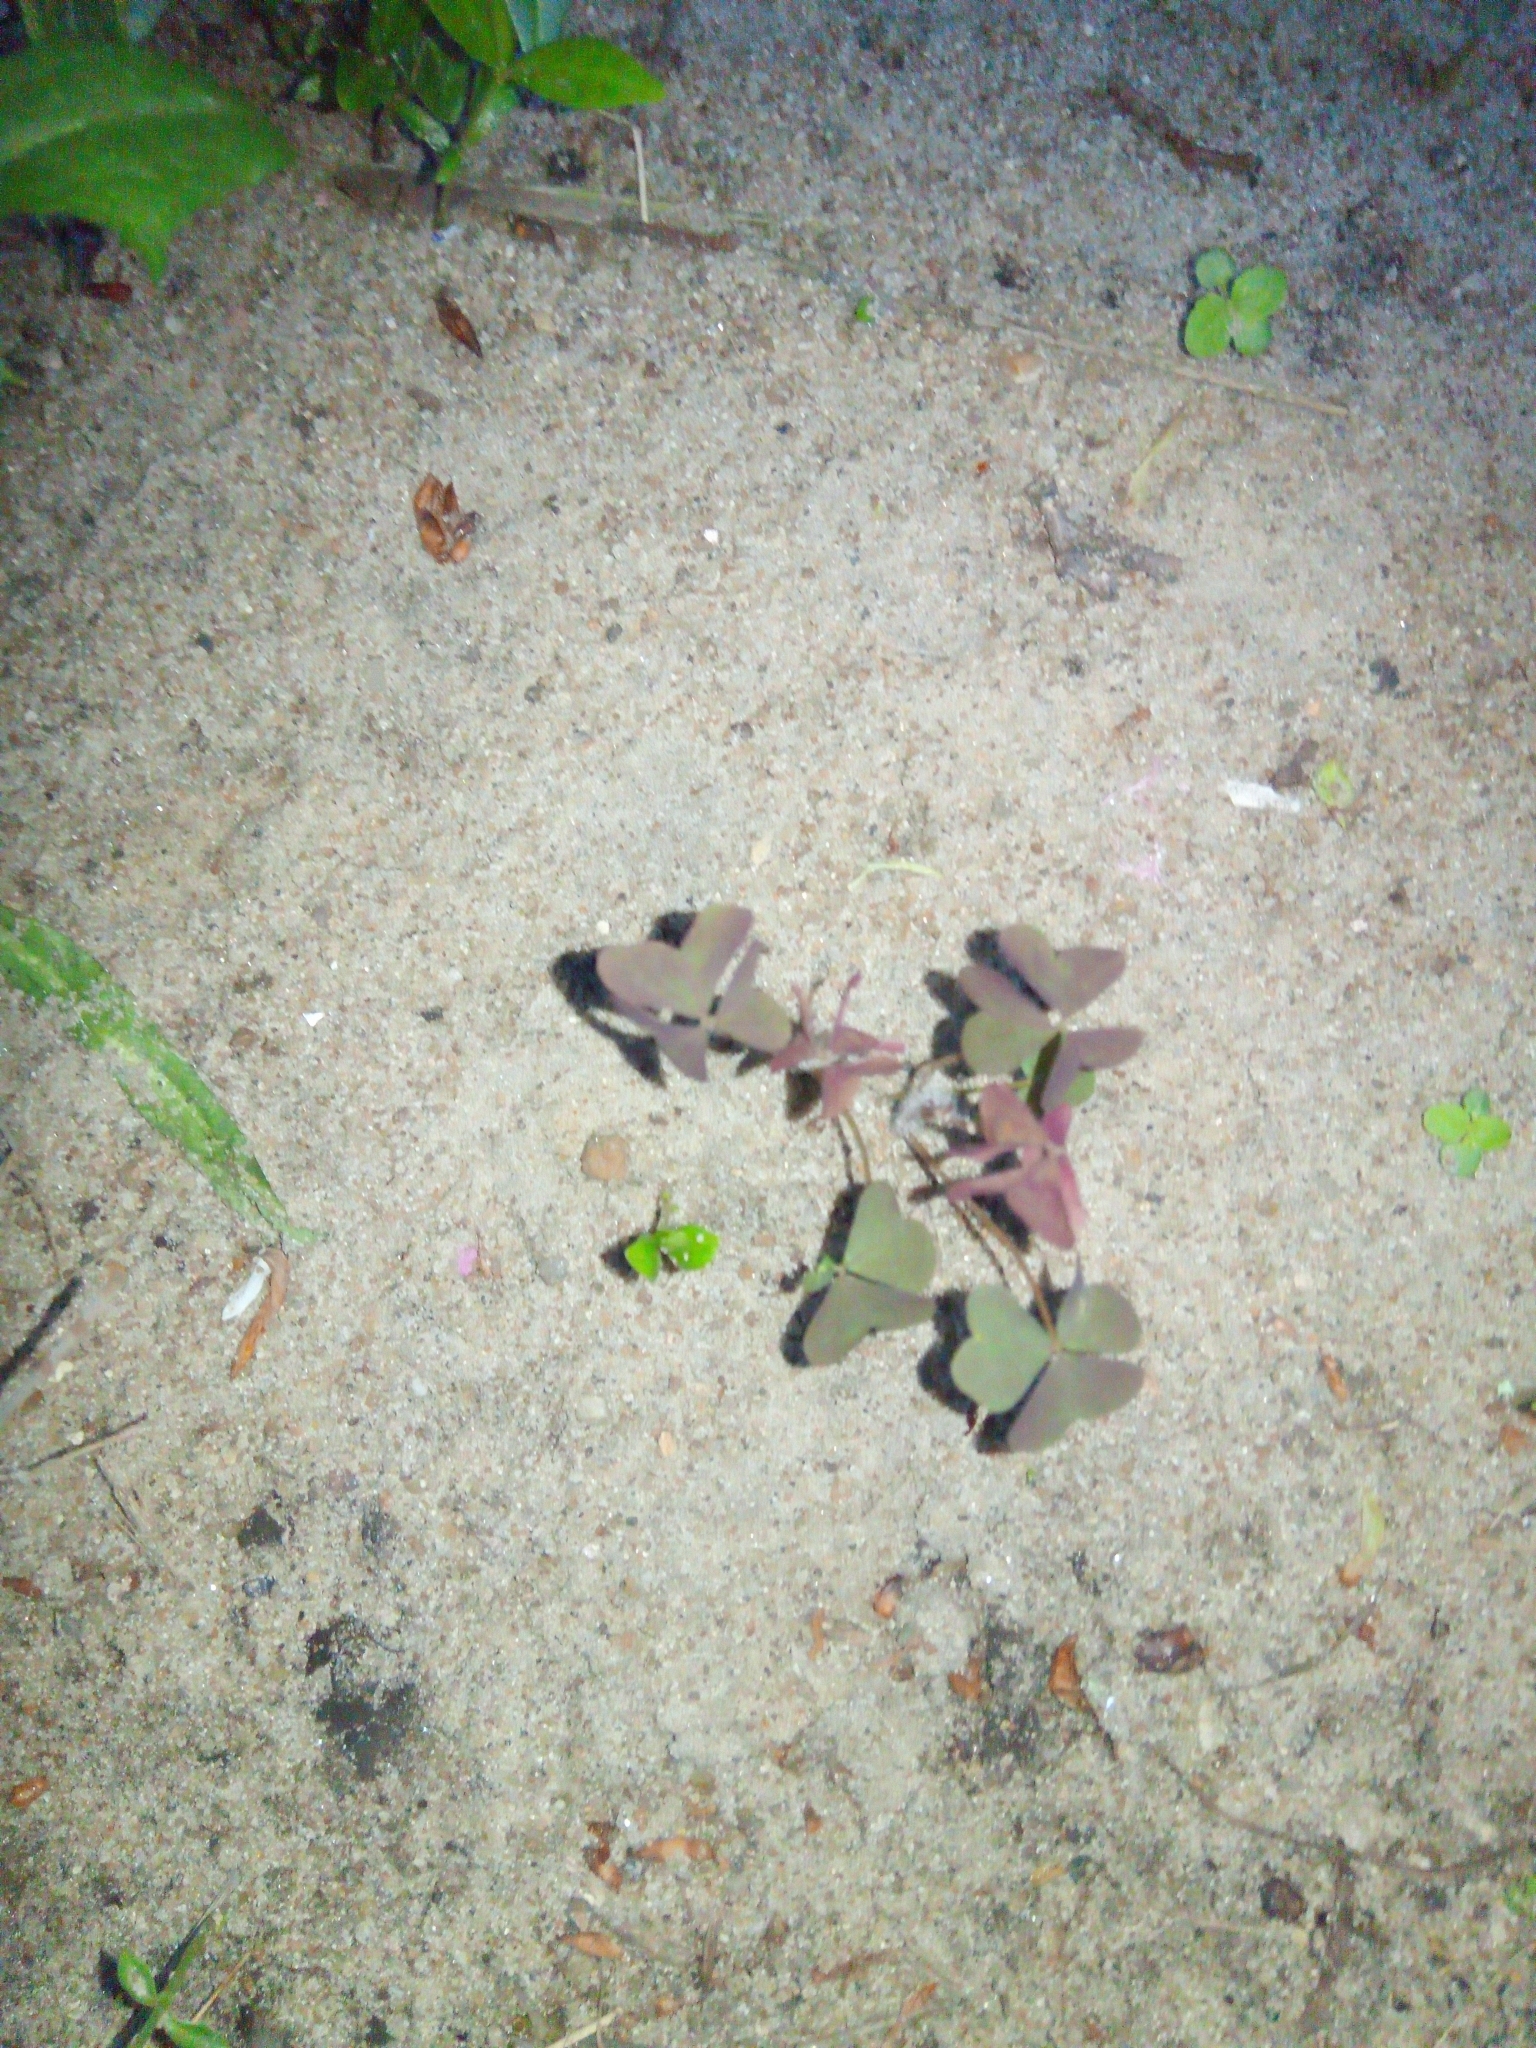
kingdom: Plantae
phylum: Tracheophyta
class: Magnoliopsida
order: Oxalidales
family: Oxalidaceae
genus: Oxalis
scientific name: Oxalis stricta
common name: Upright yellow-sorrel
